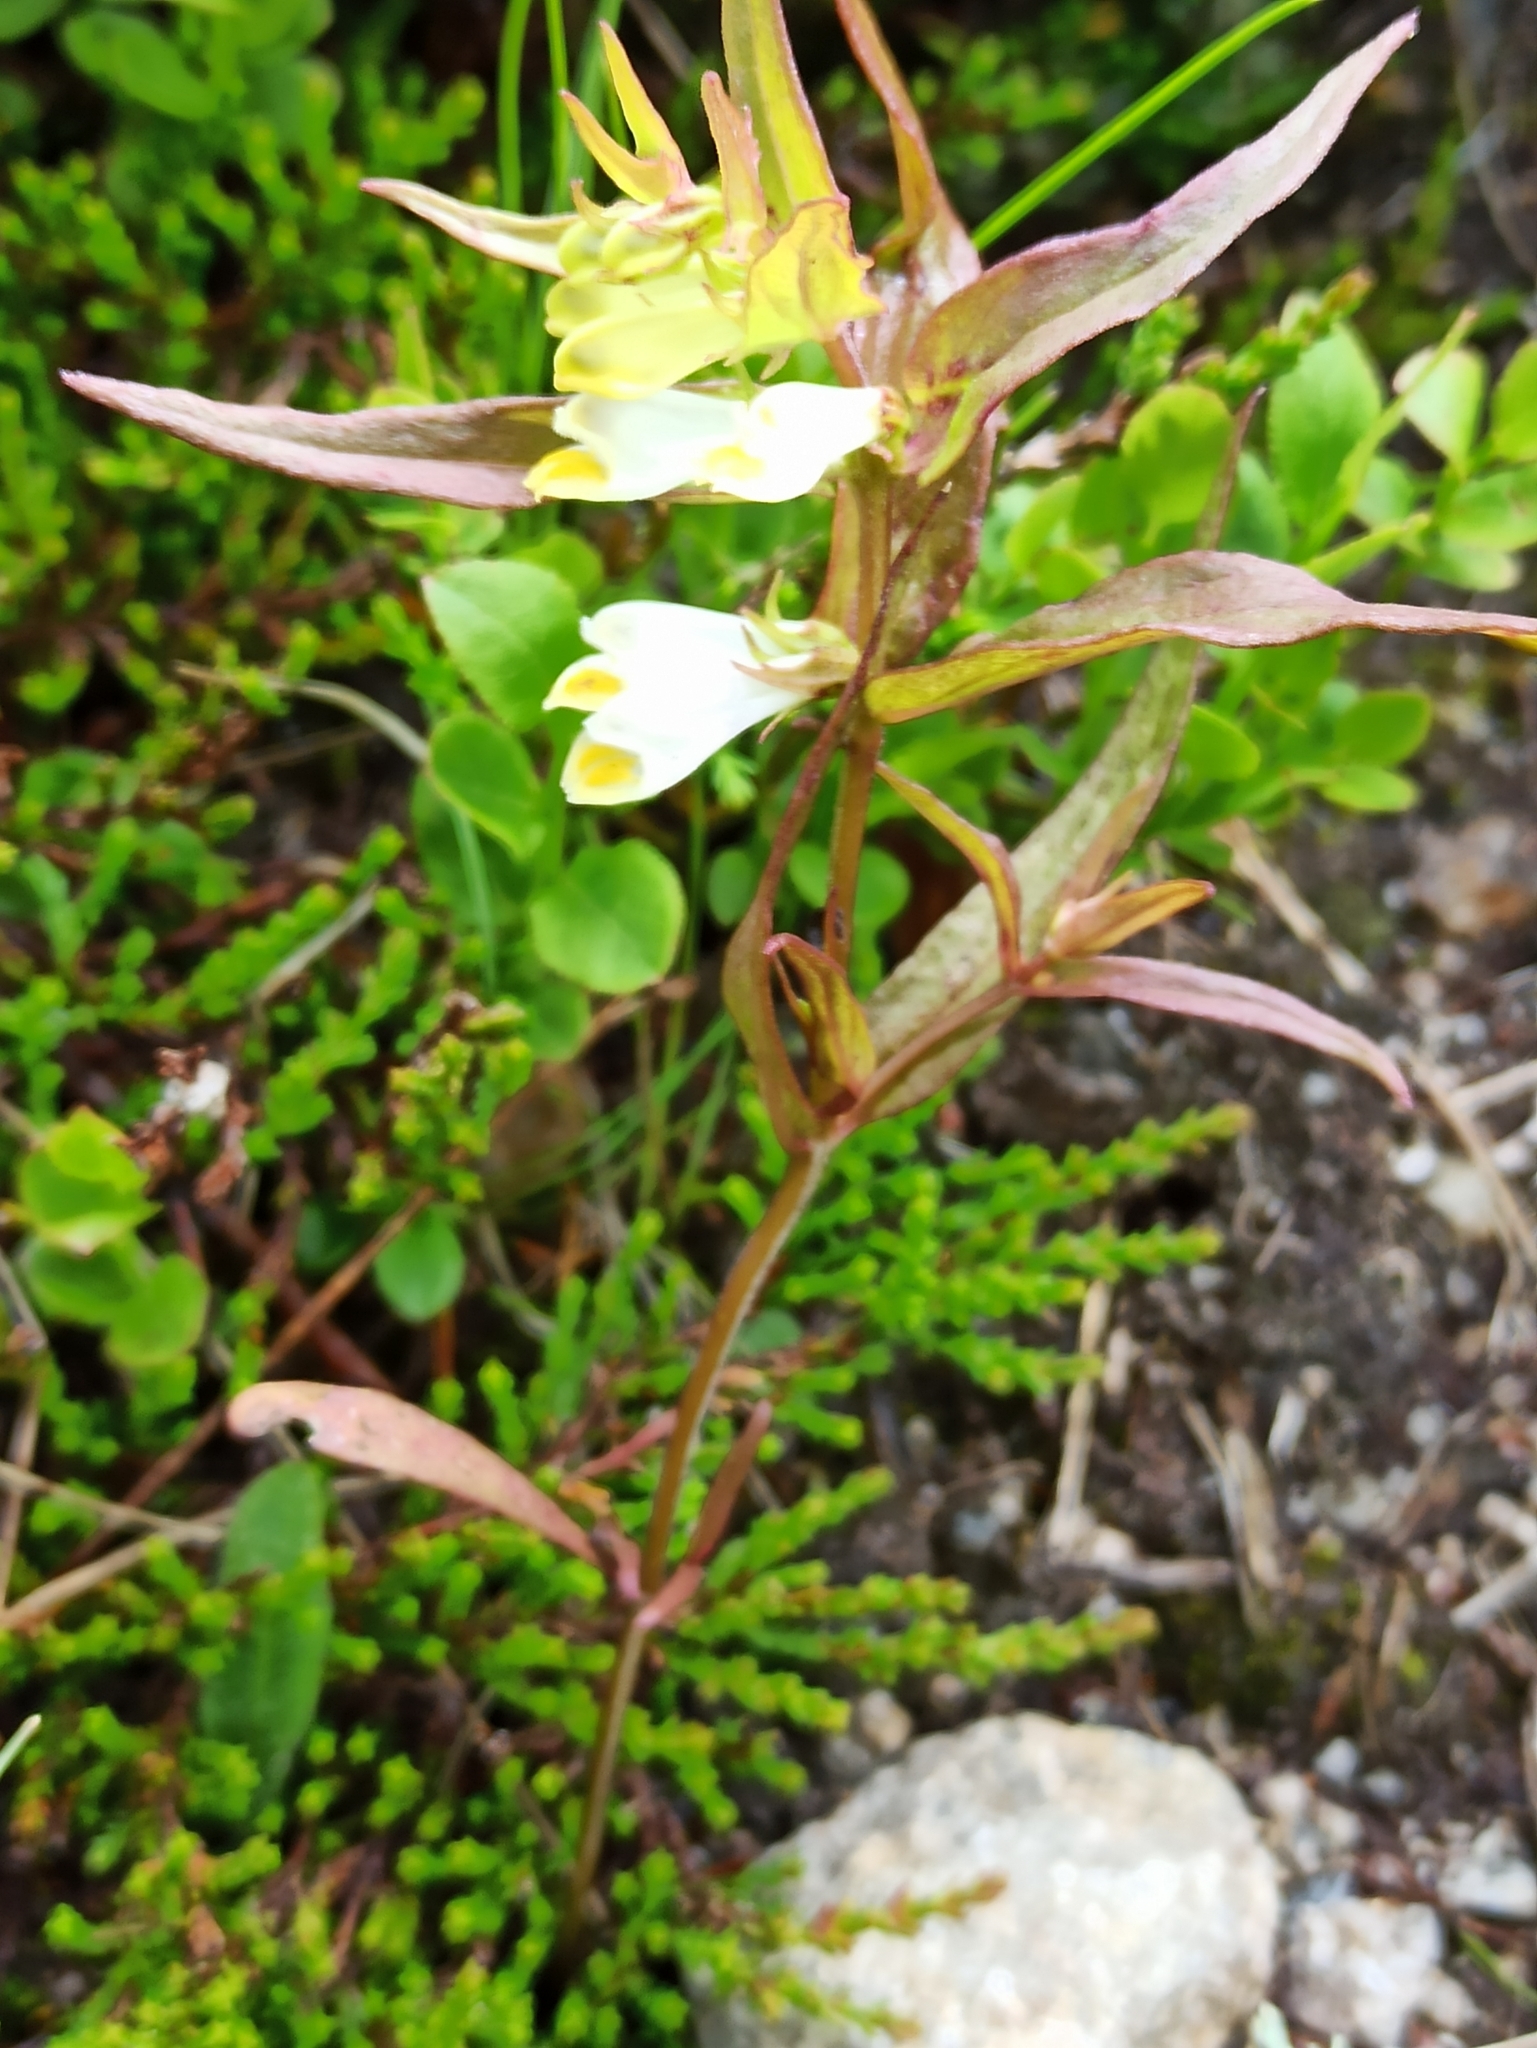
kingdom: Plantae
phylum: Tracheophyta
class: Magnoliopsida
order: Lamiales
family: Orobanchaceae
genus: Melampyrum
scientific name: Melampyrum pratense
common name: Common cow-wheat
